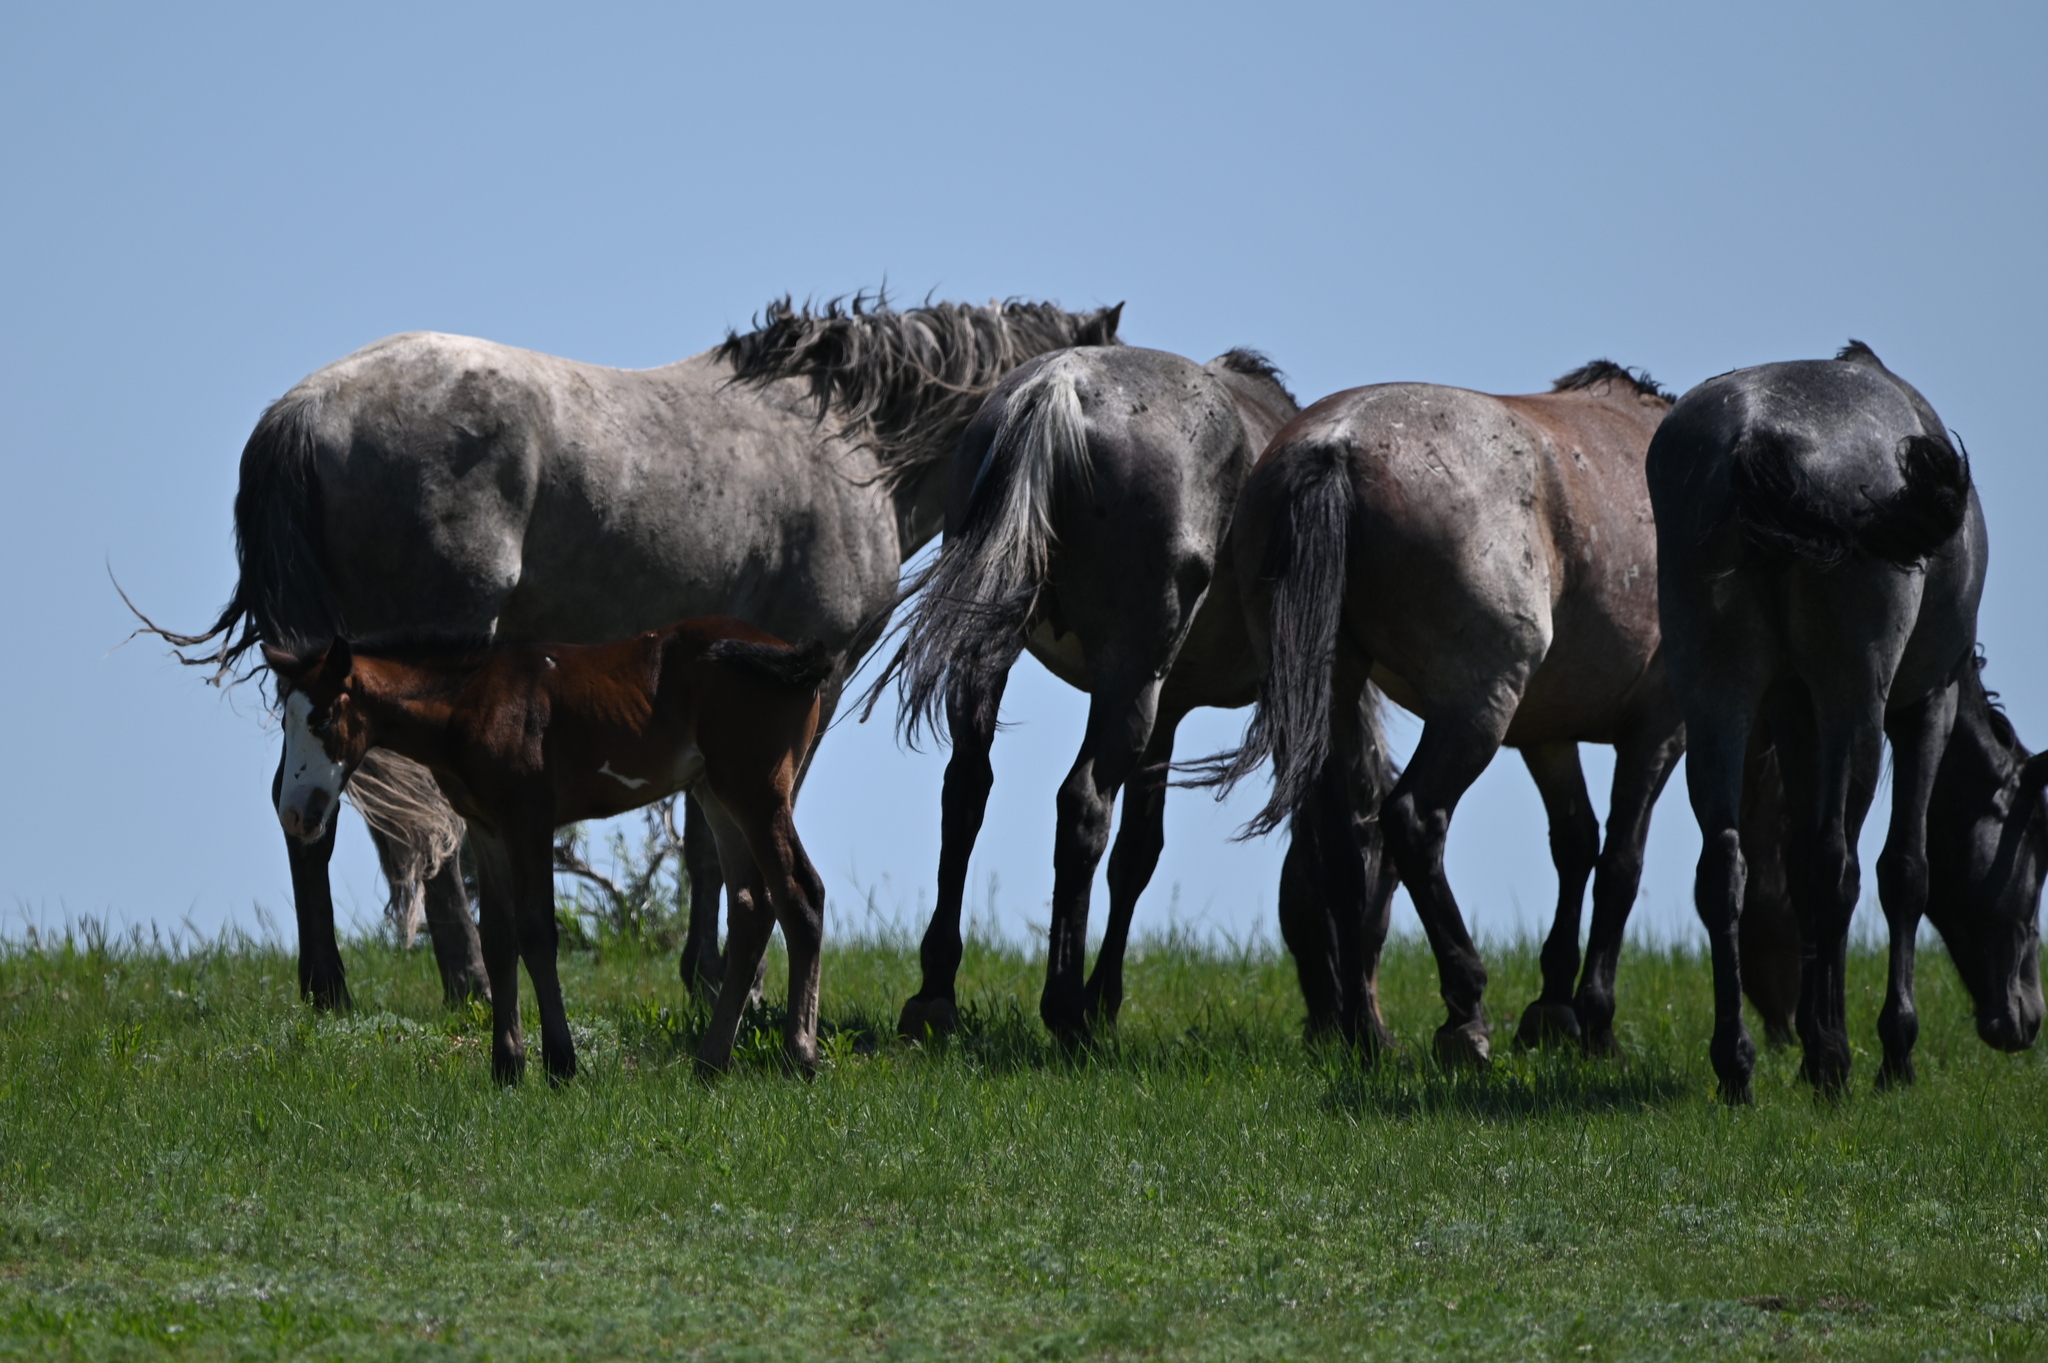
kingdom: Animalia
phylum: Chordata
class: Mammalia
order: Perissodactyla
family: Equidae
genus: Equus
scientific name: Equus caballus
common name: Horse
